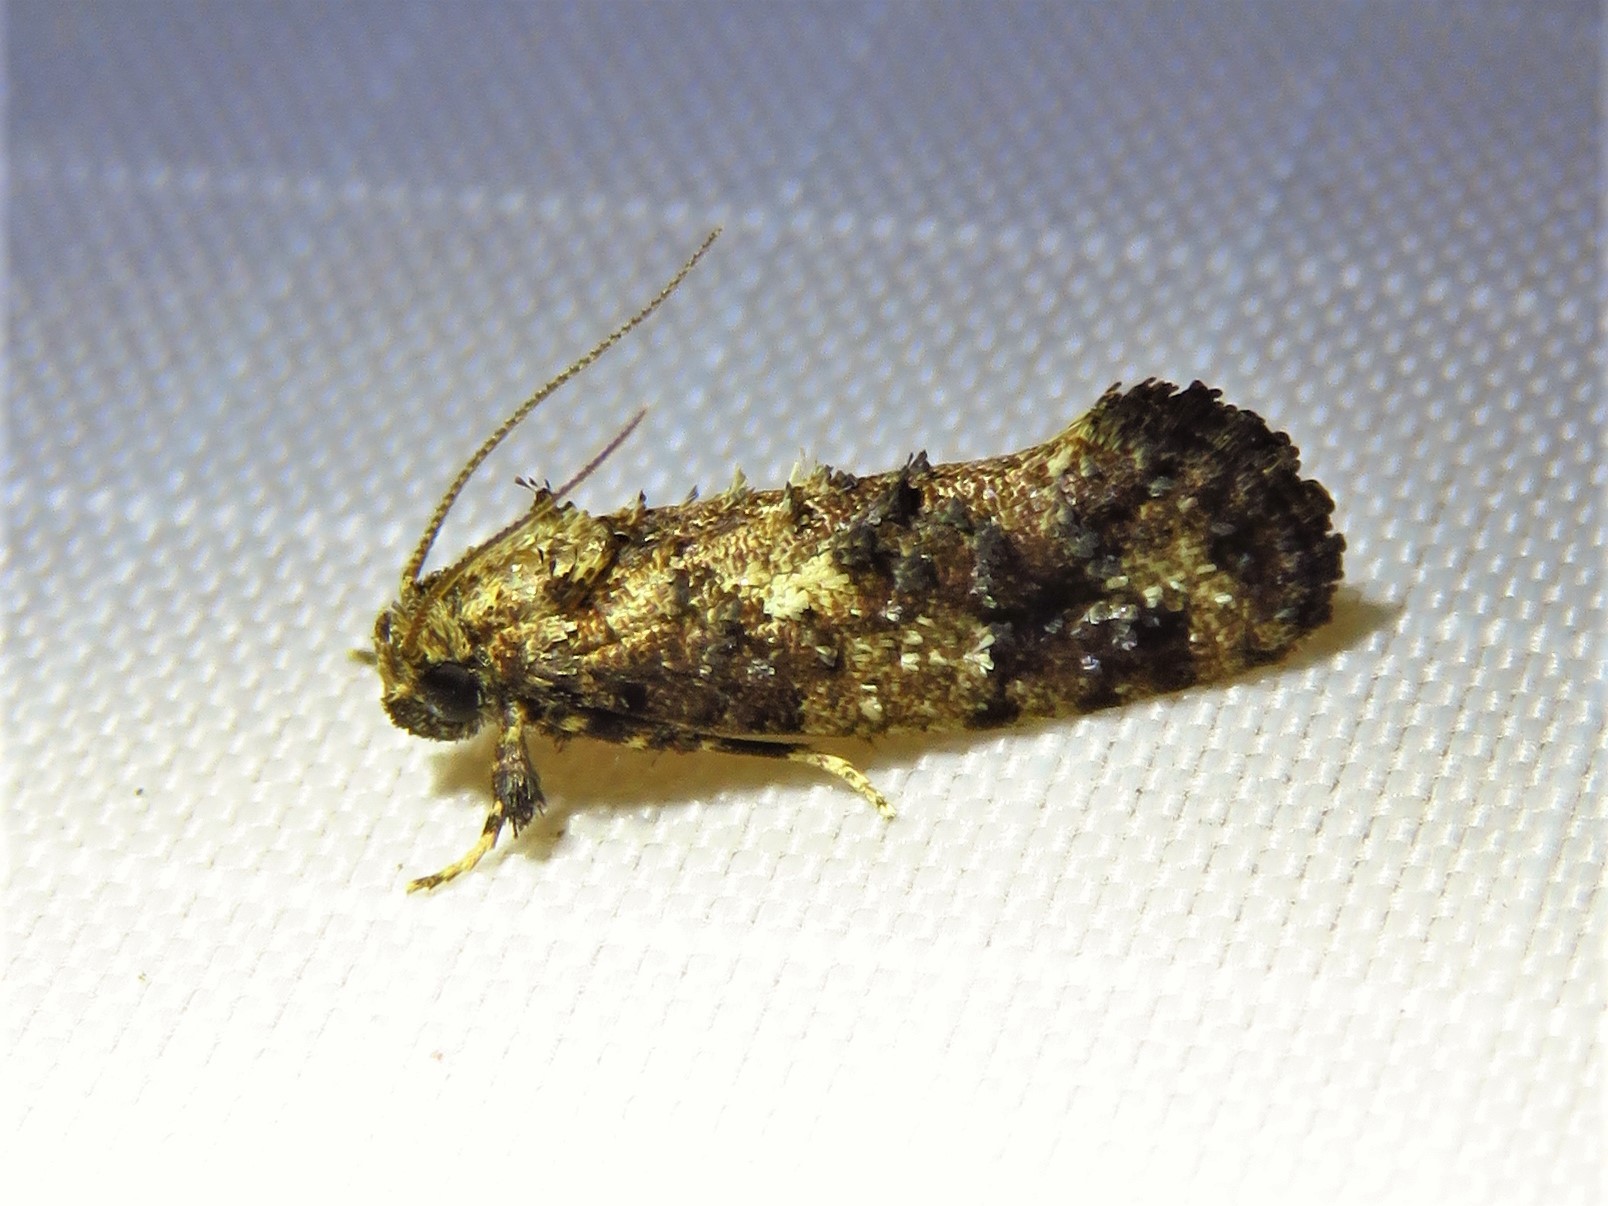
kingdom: Animalia
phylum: Arthropoda
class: Insecta
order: Lepidoptera
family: Tineidae
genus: Acrolophus
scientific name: Acrolophus cressoni
